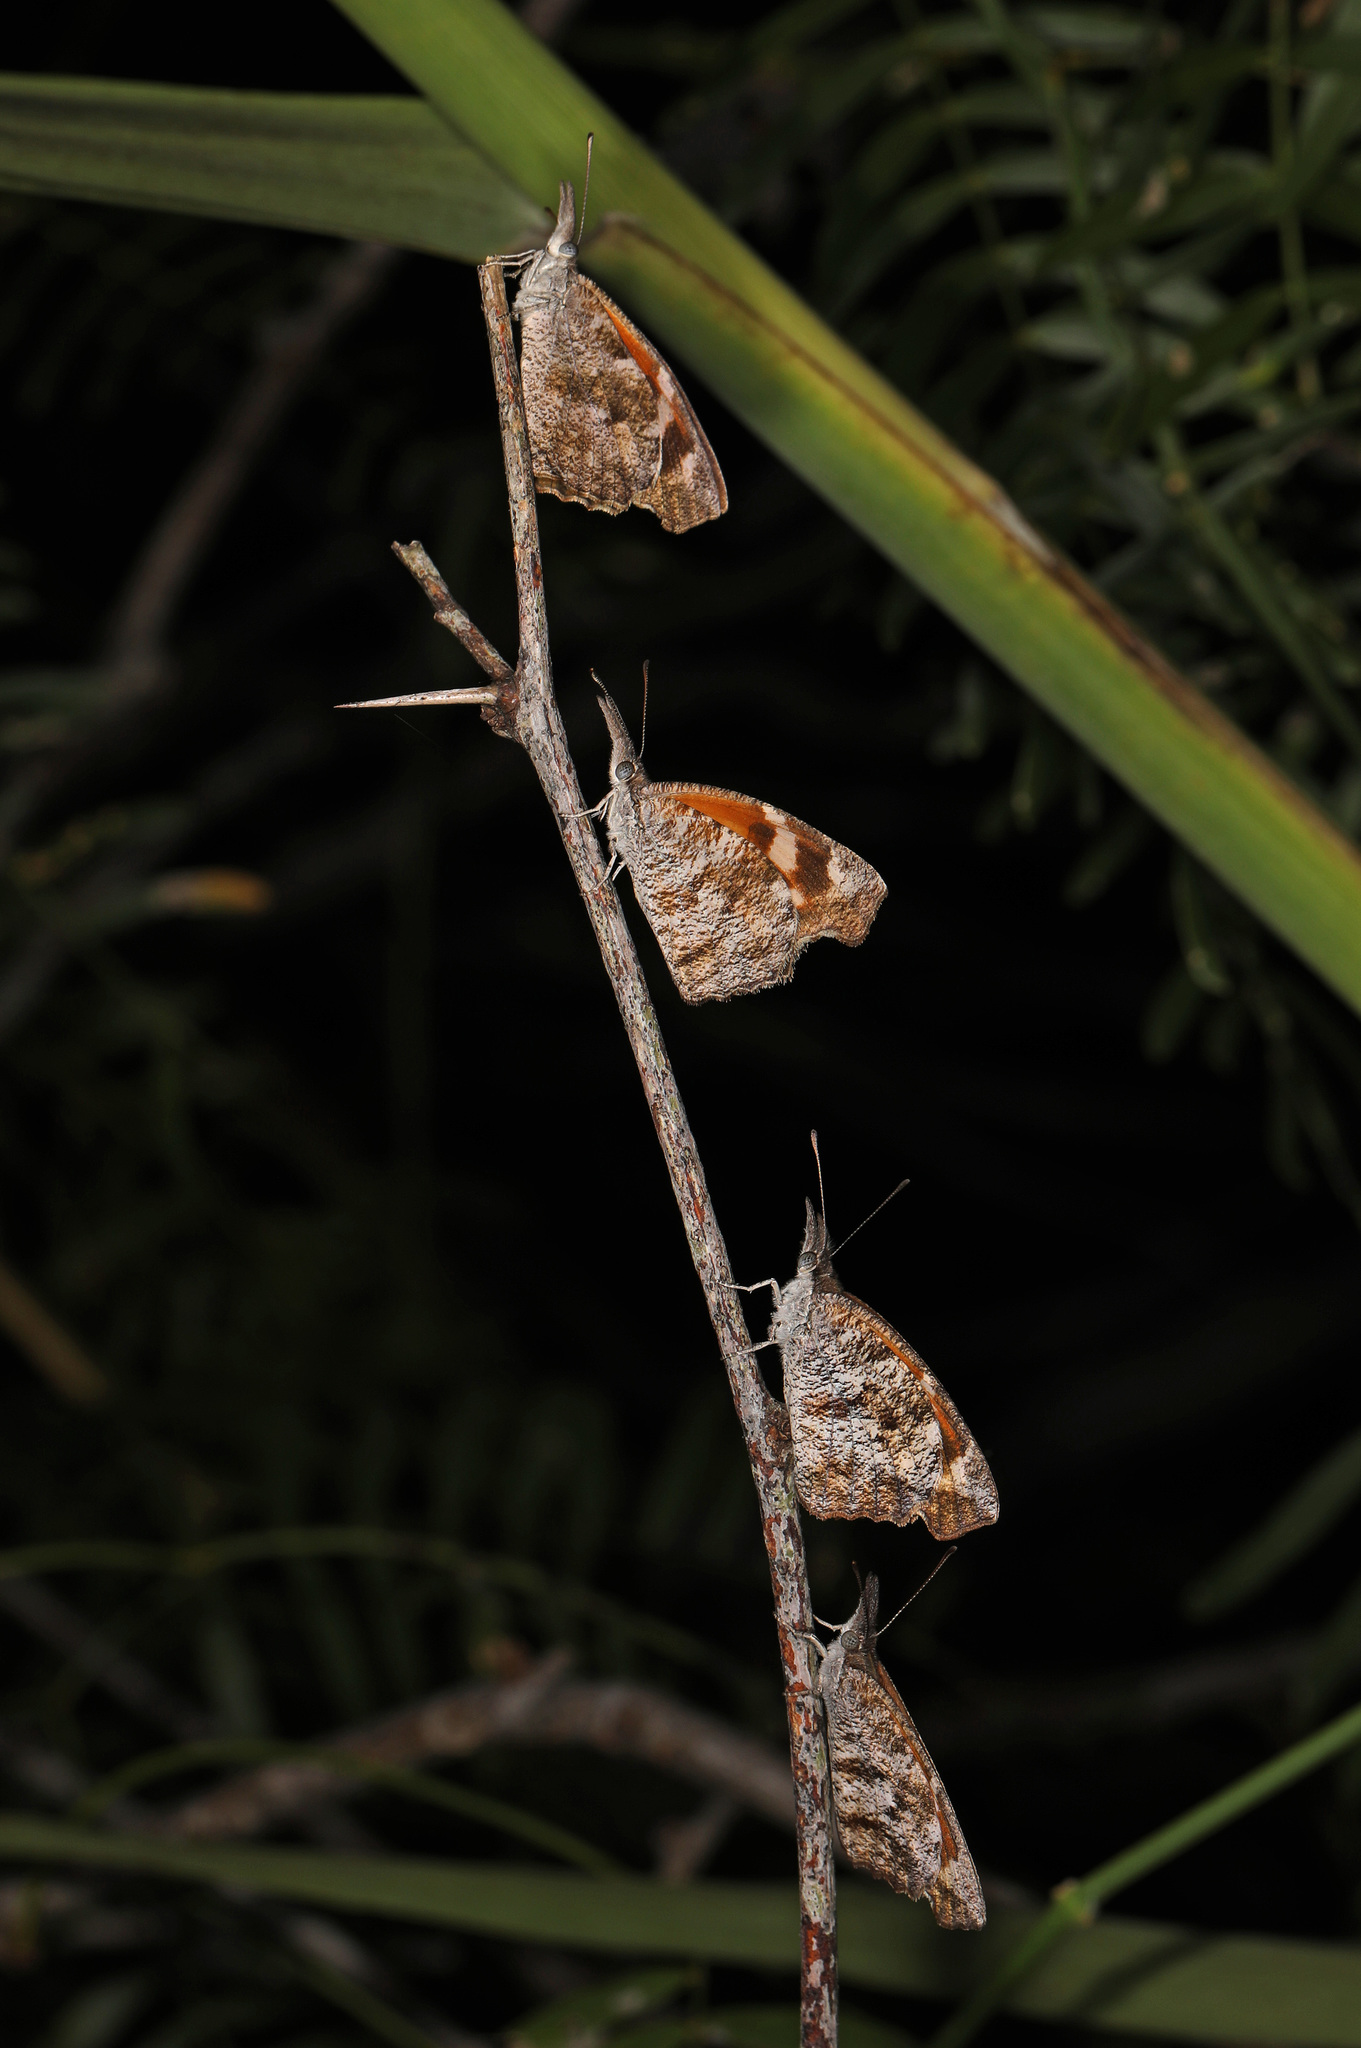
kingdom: Animalia
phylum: Arthropoda
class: Insecta
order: Lepidoptera
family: Nymphalidae
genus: Libytheana
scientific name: Libytheana carinenta
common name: American snout
